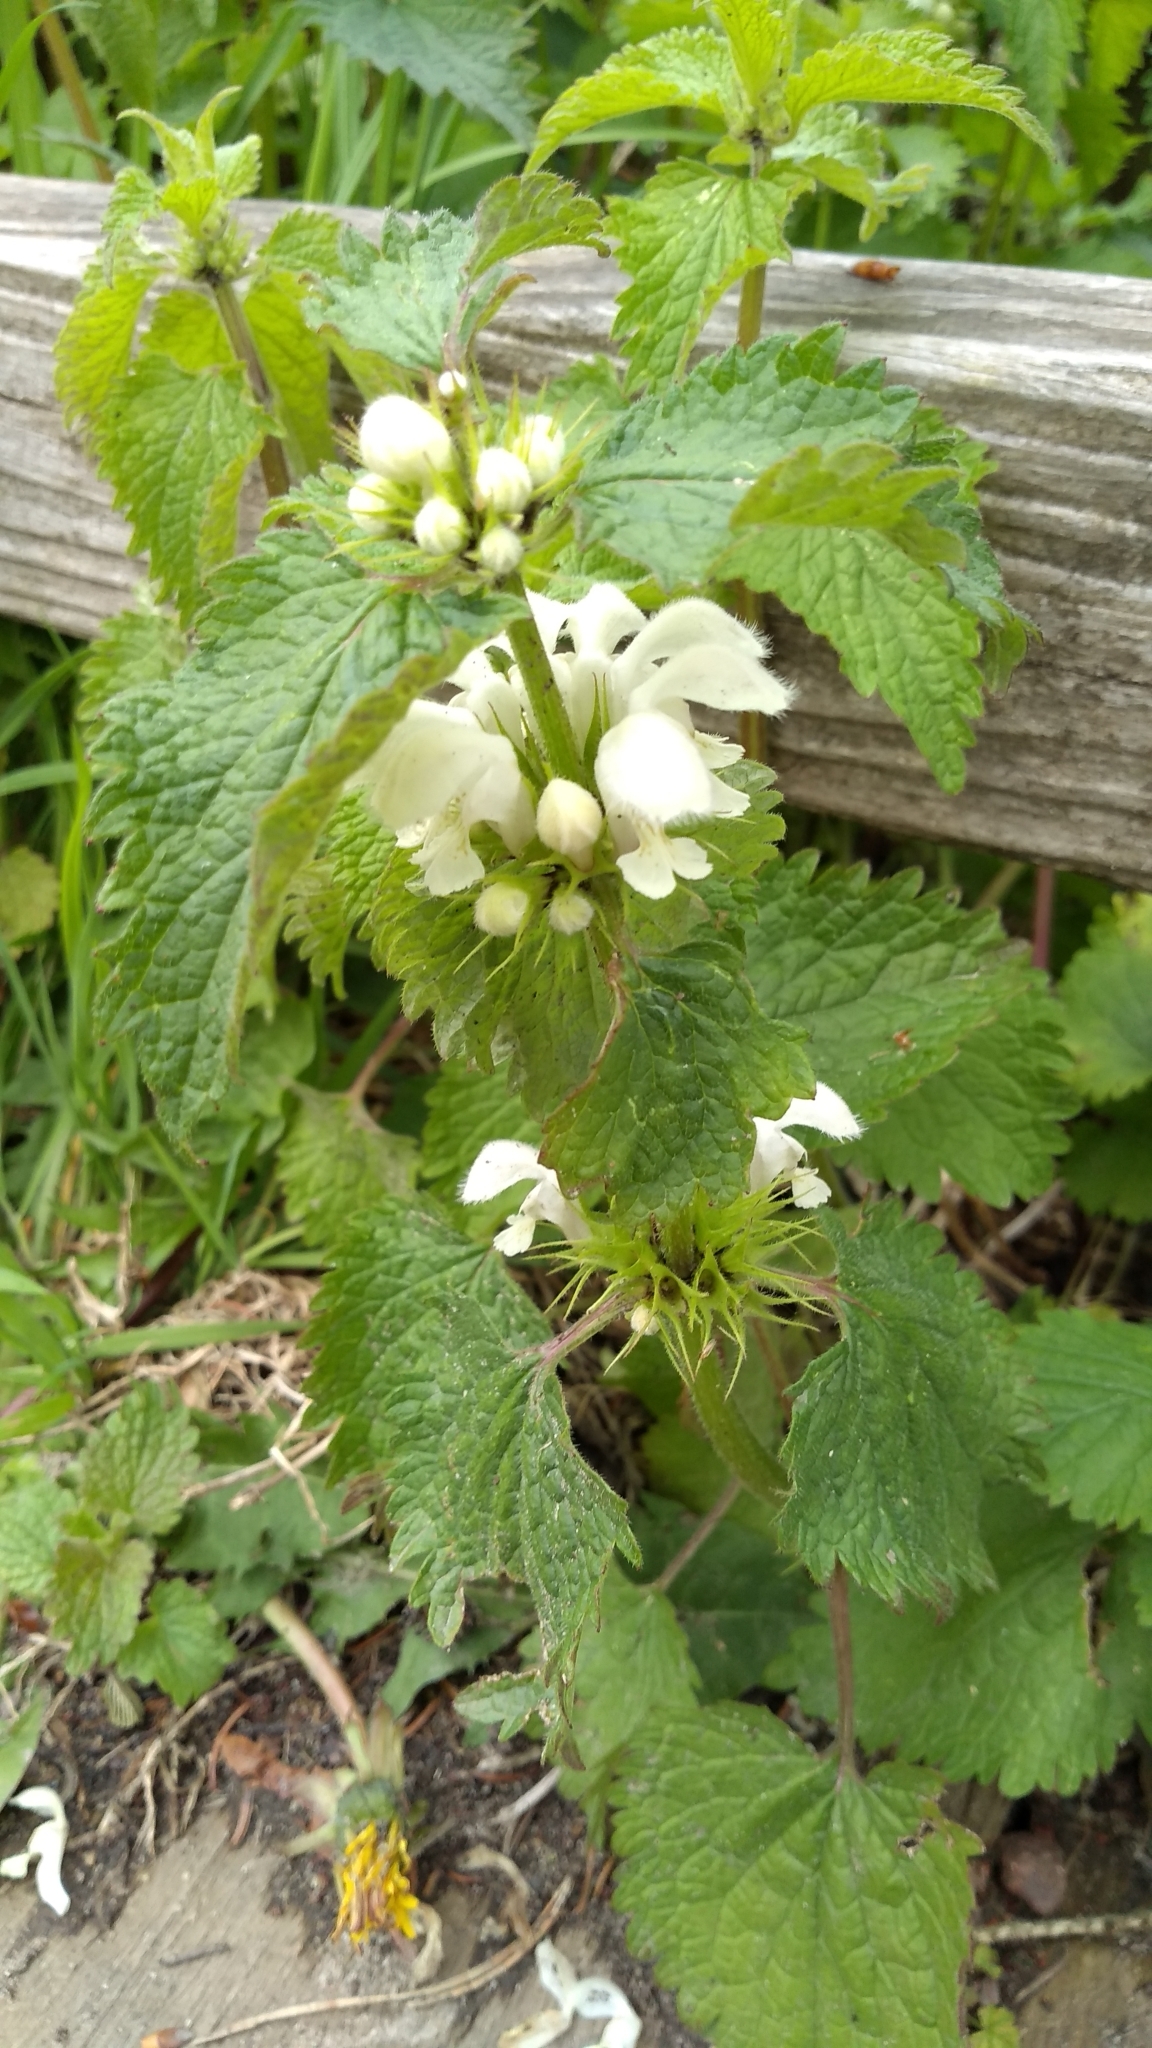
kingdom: Plantae
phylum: Tracheophyta
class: Magnoliopsida
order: Lamiales
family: Lamiaceae
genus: Lamium
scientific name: Lamium album
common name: White dead-nettle
